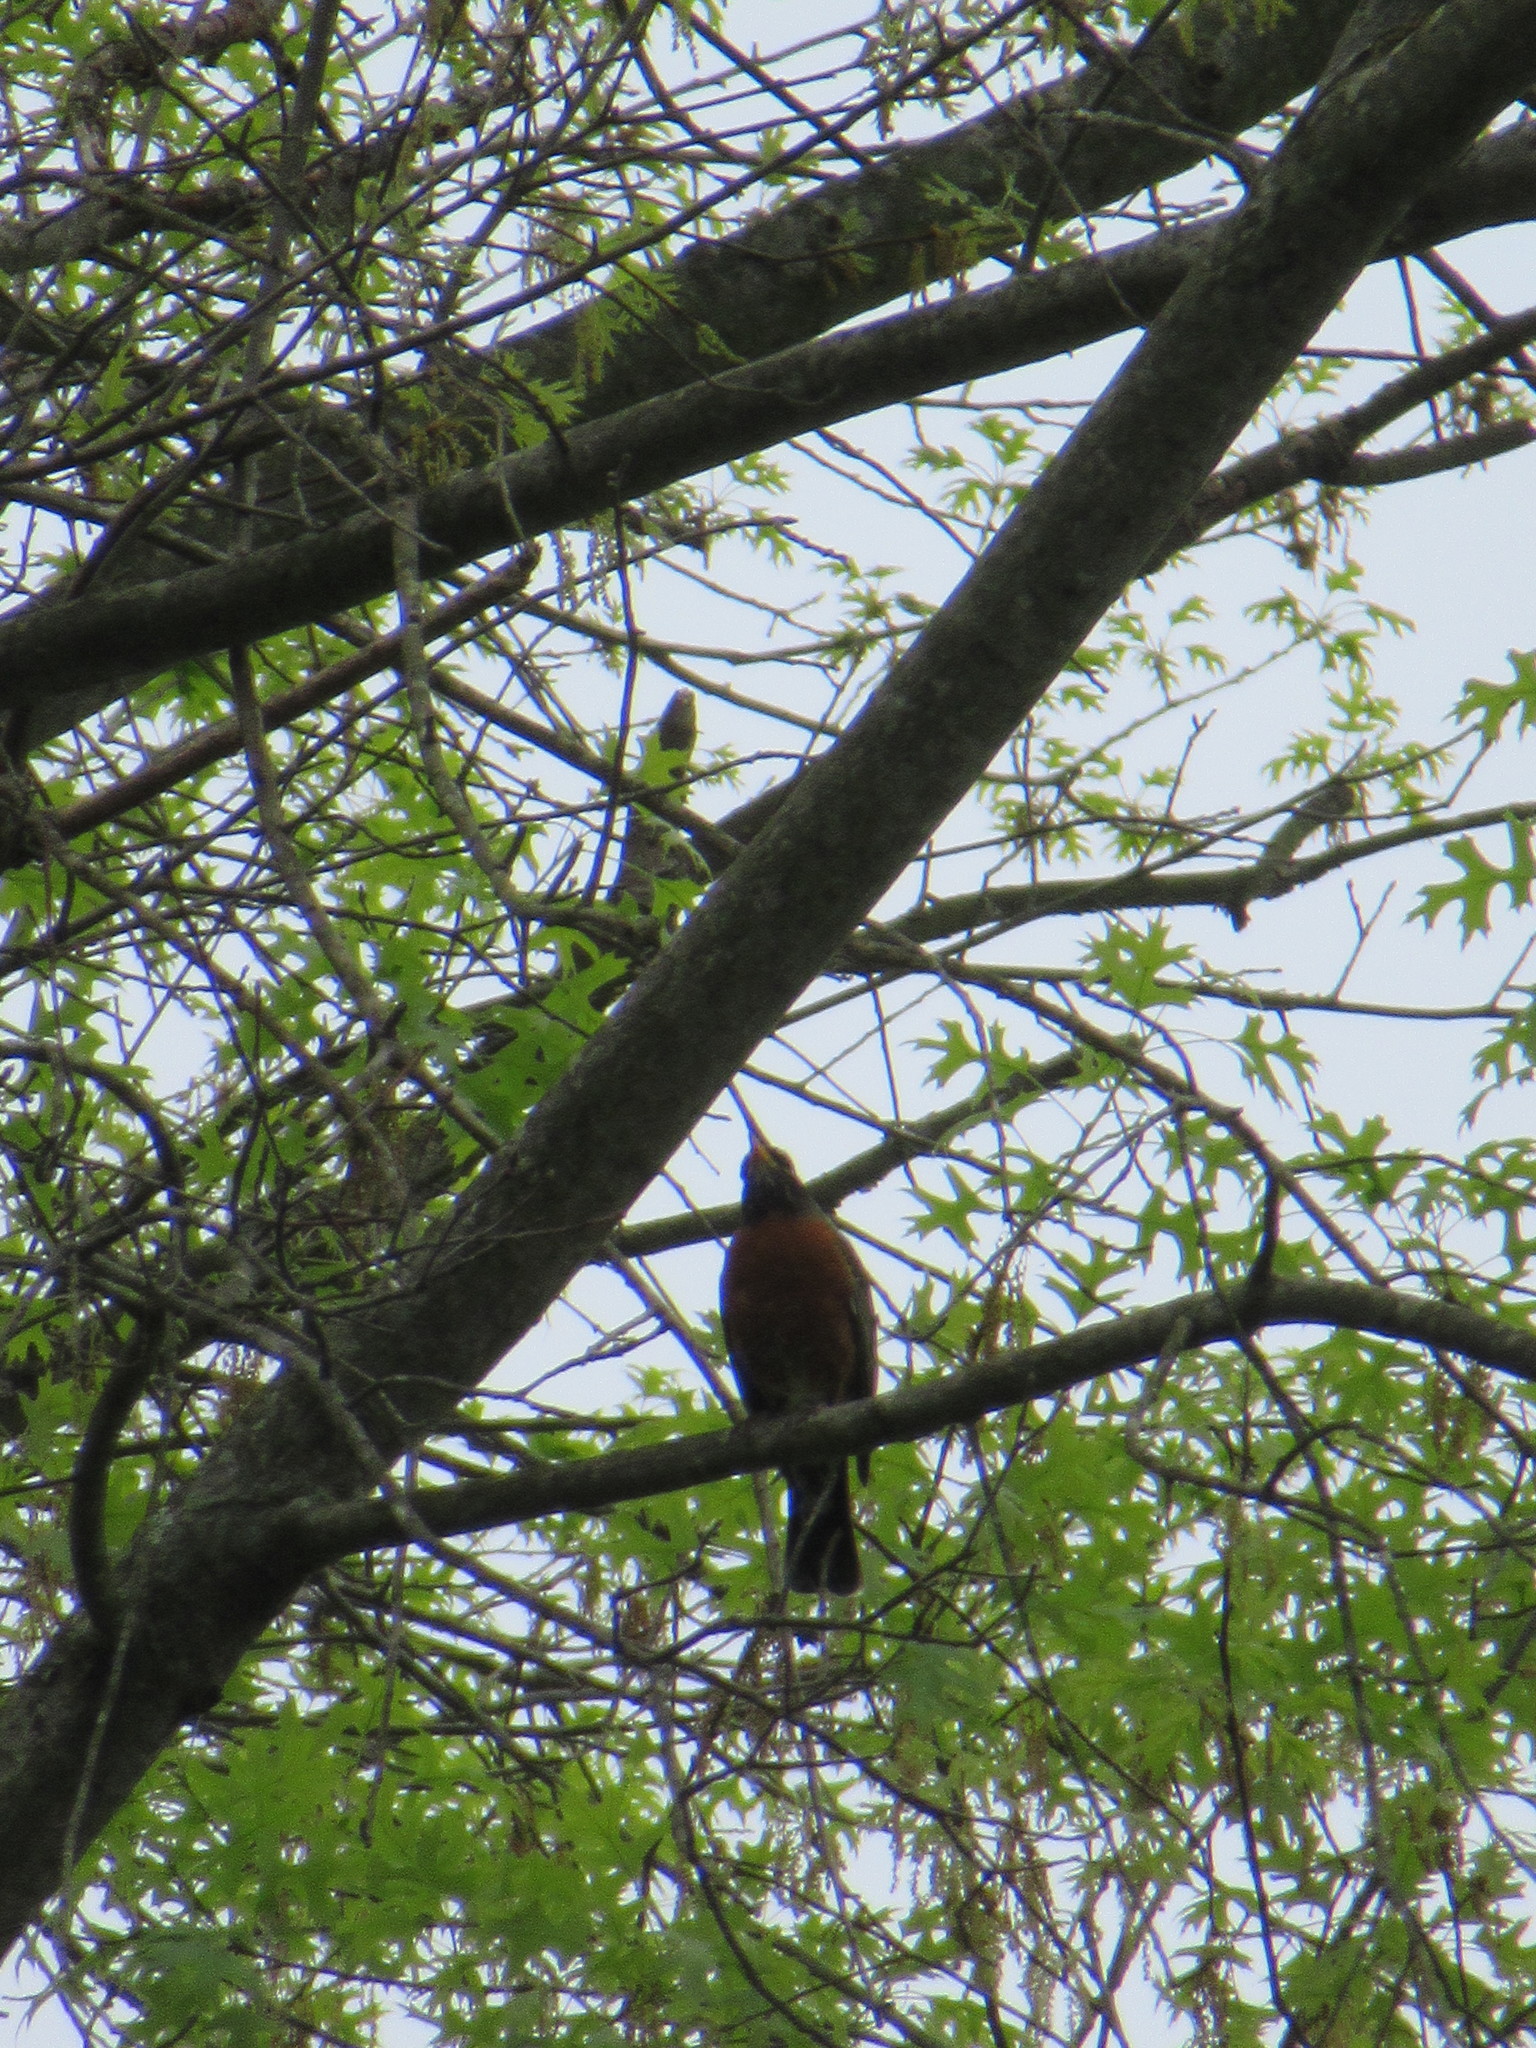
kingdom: Animalia
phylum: Chordata
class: Aves
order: Passeriformes
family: Turdidae
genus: Turdus
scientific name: Turdus migratorius
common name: American robin
